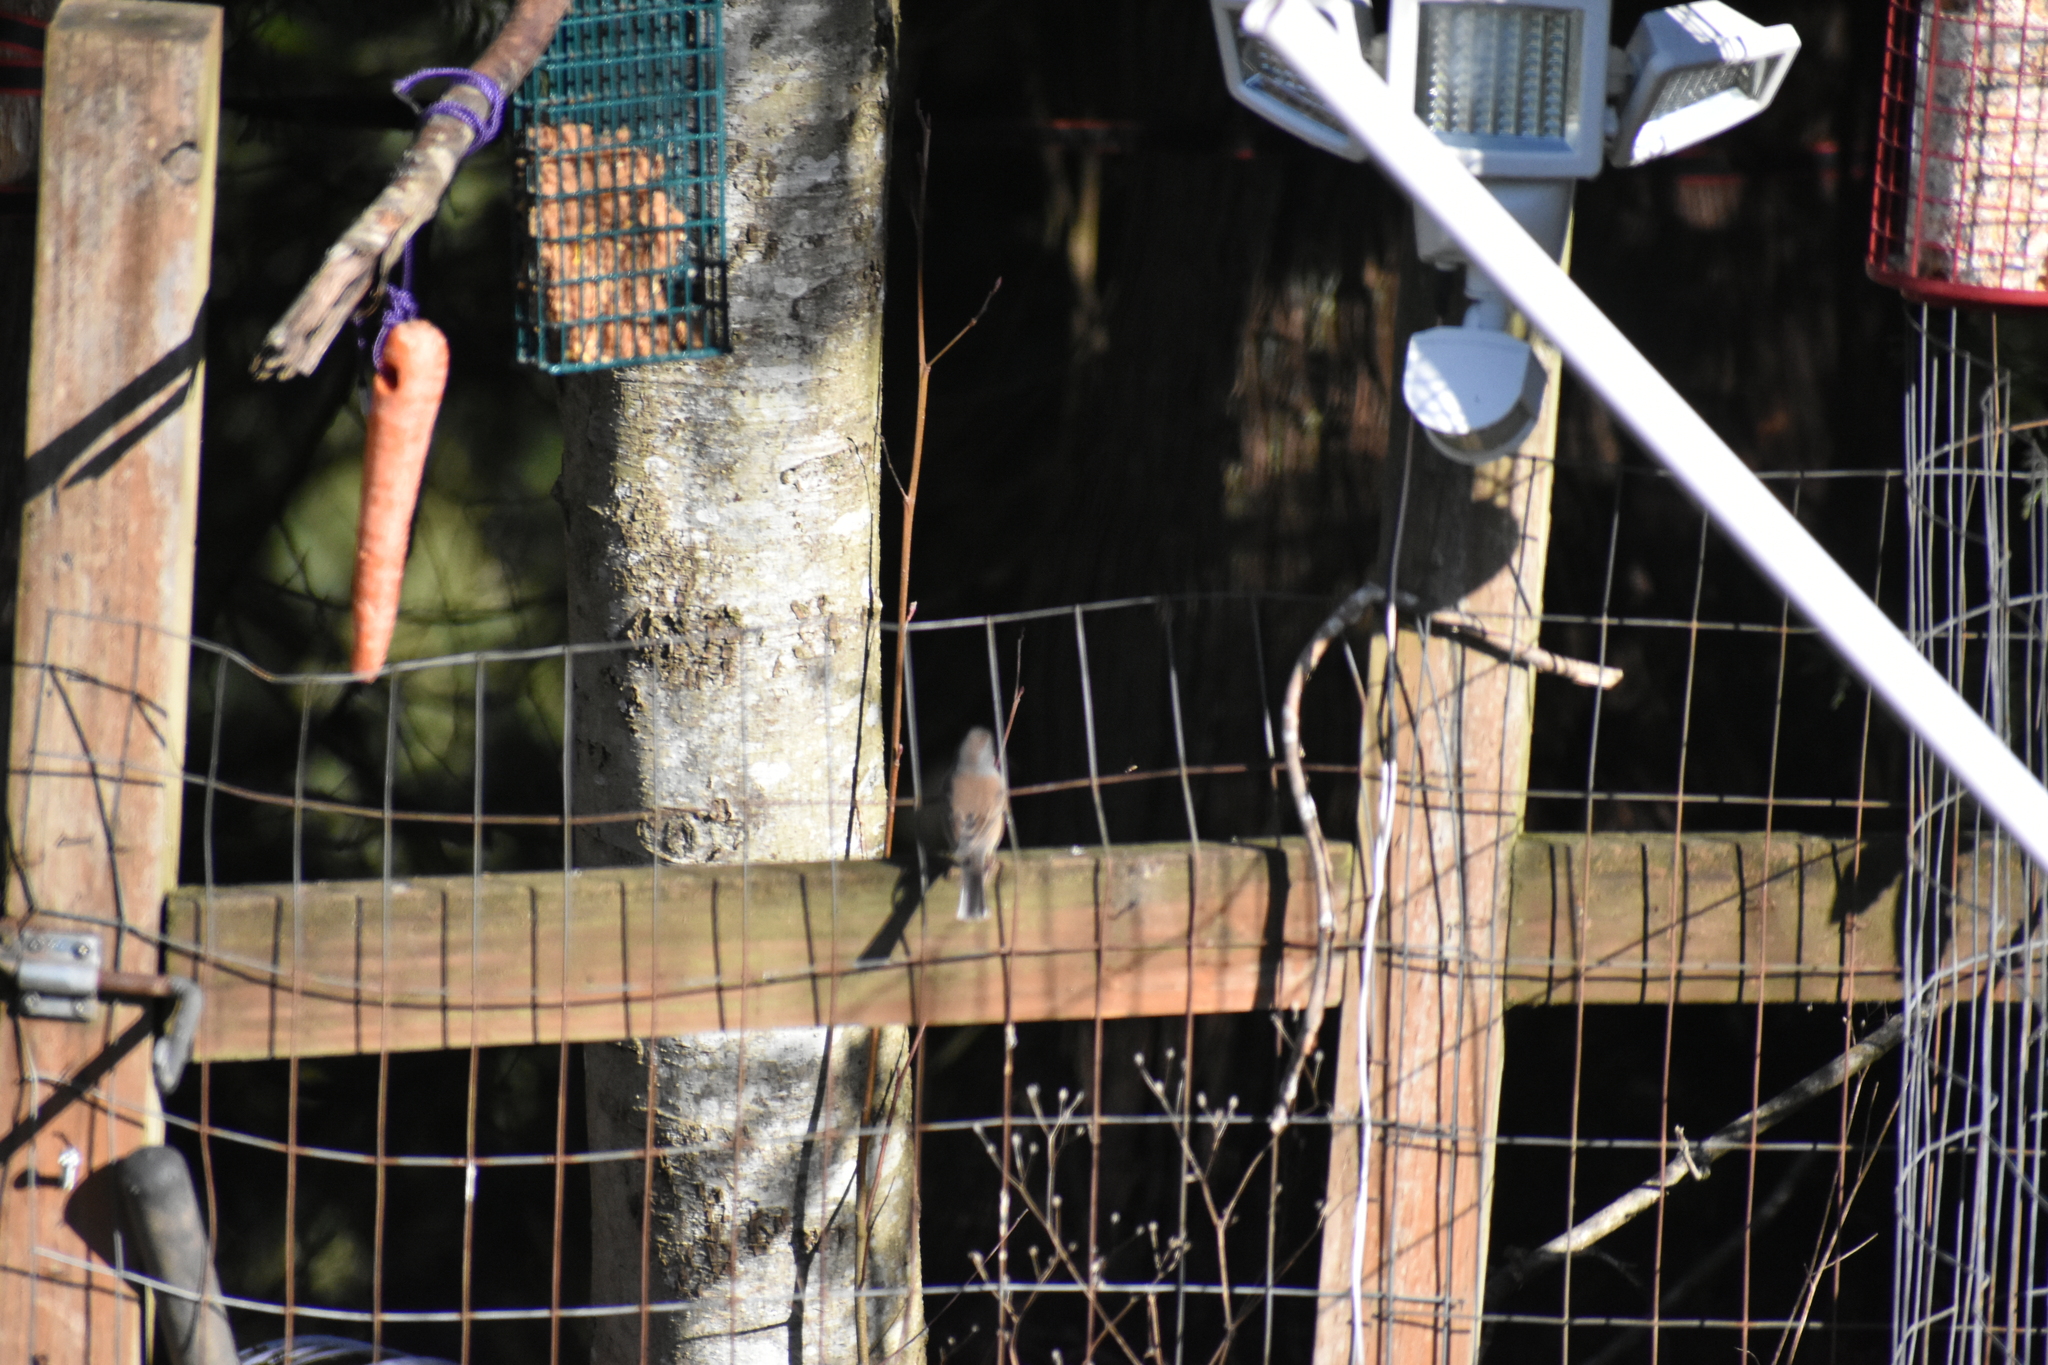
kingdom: Animalia
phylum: Chordata
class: Aves
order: Passeriformes
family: Passerellidae
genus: Junco
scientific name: Junco hyemalis
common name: Dark-eyed junco
